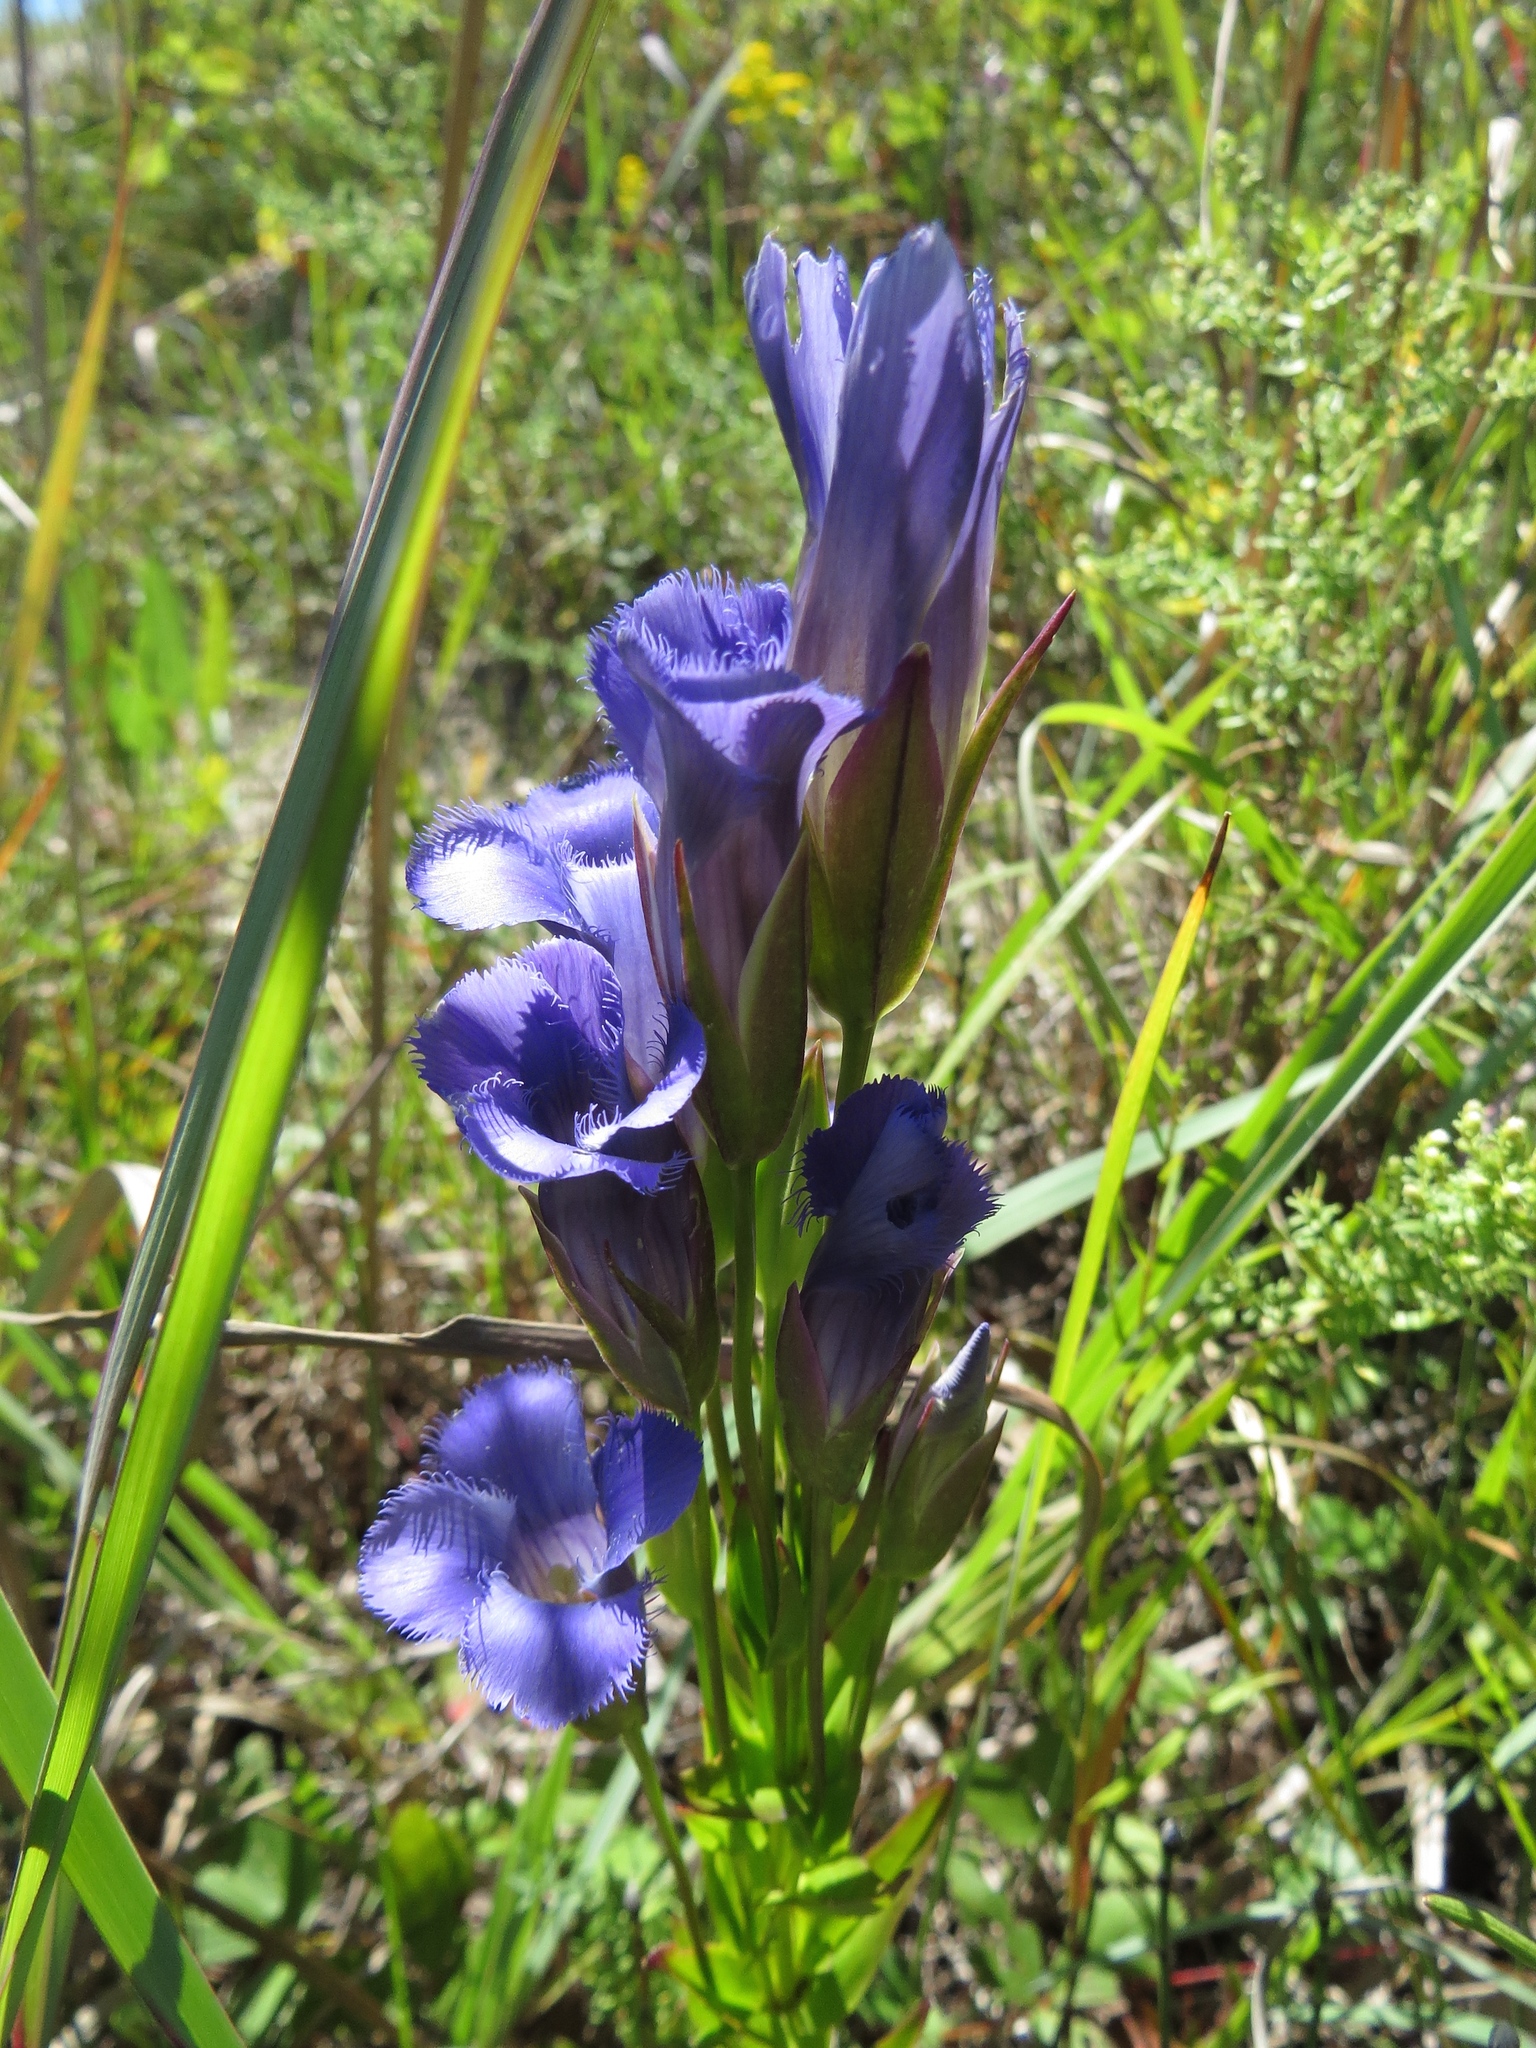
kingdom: Plantae
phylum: Tracheophyta
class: Magnoliopsida
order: Gentianales
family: Gentianaceae
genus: Gentianopsis
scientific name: Gentianopsis crinita
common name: Fringed-gentian
